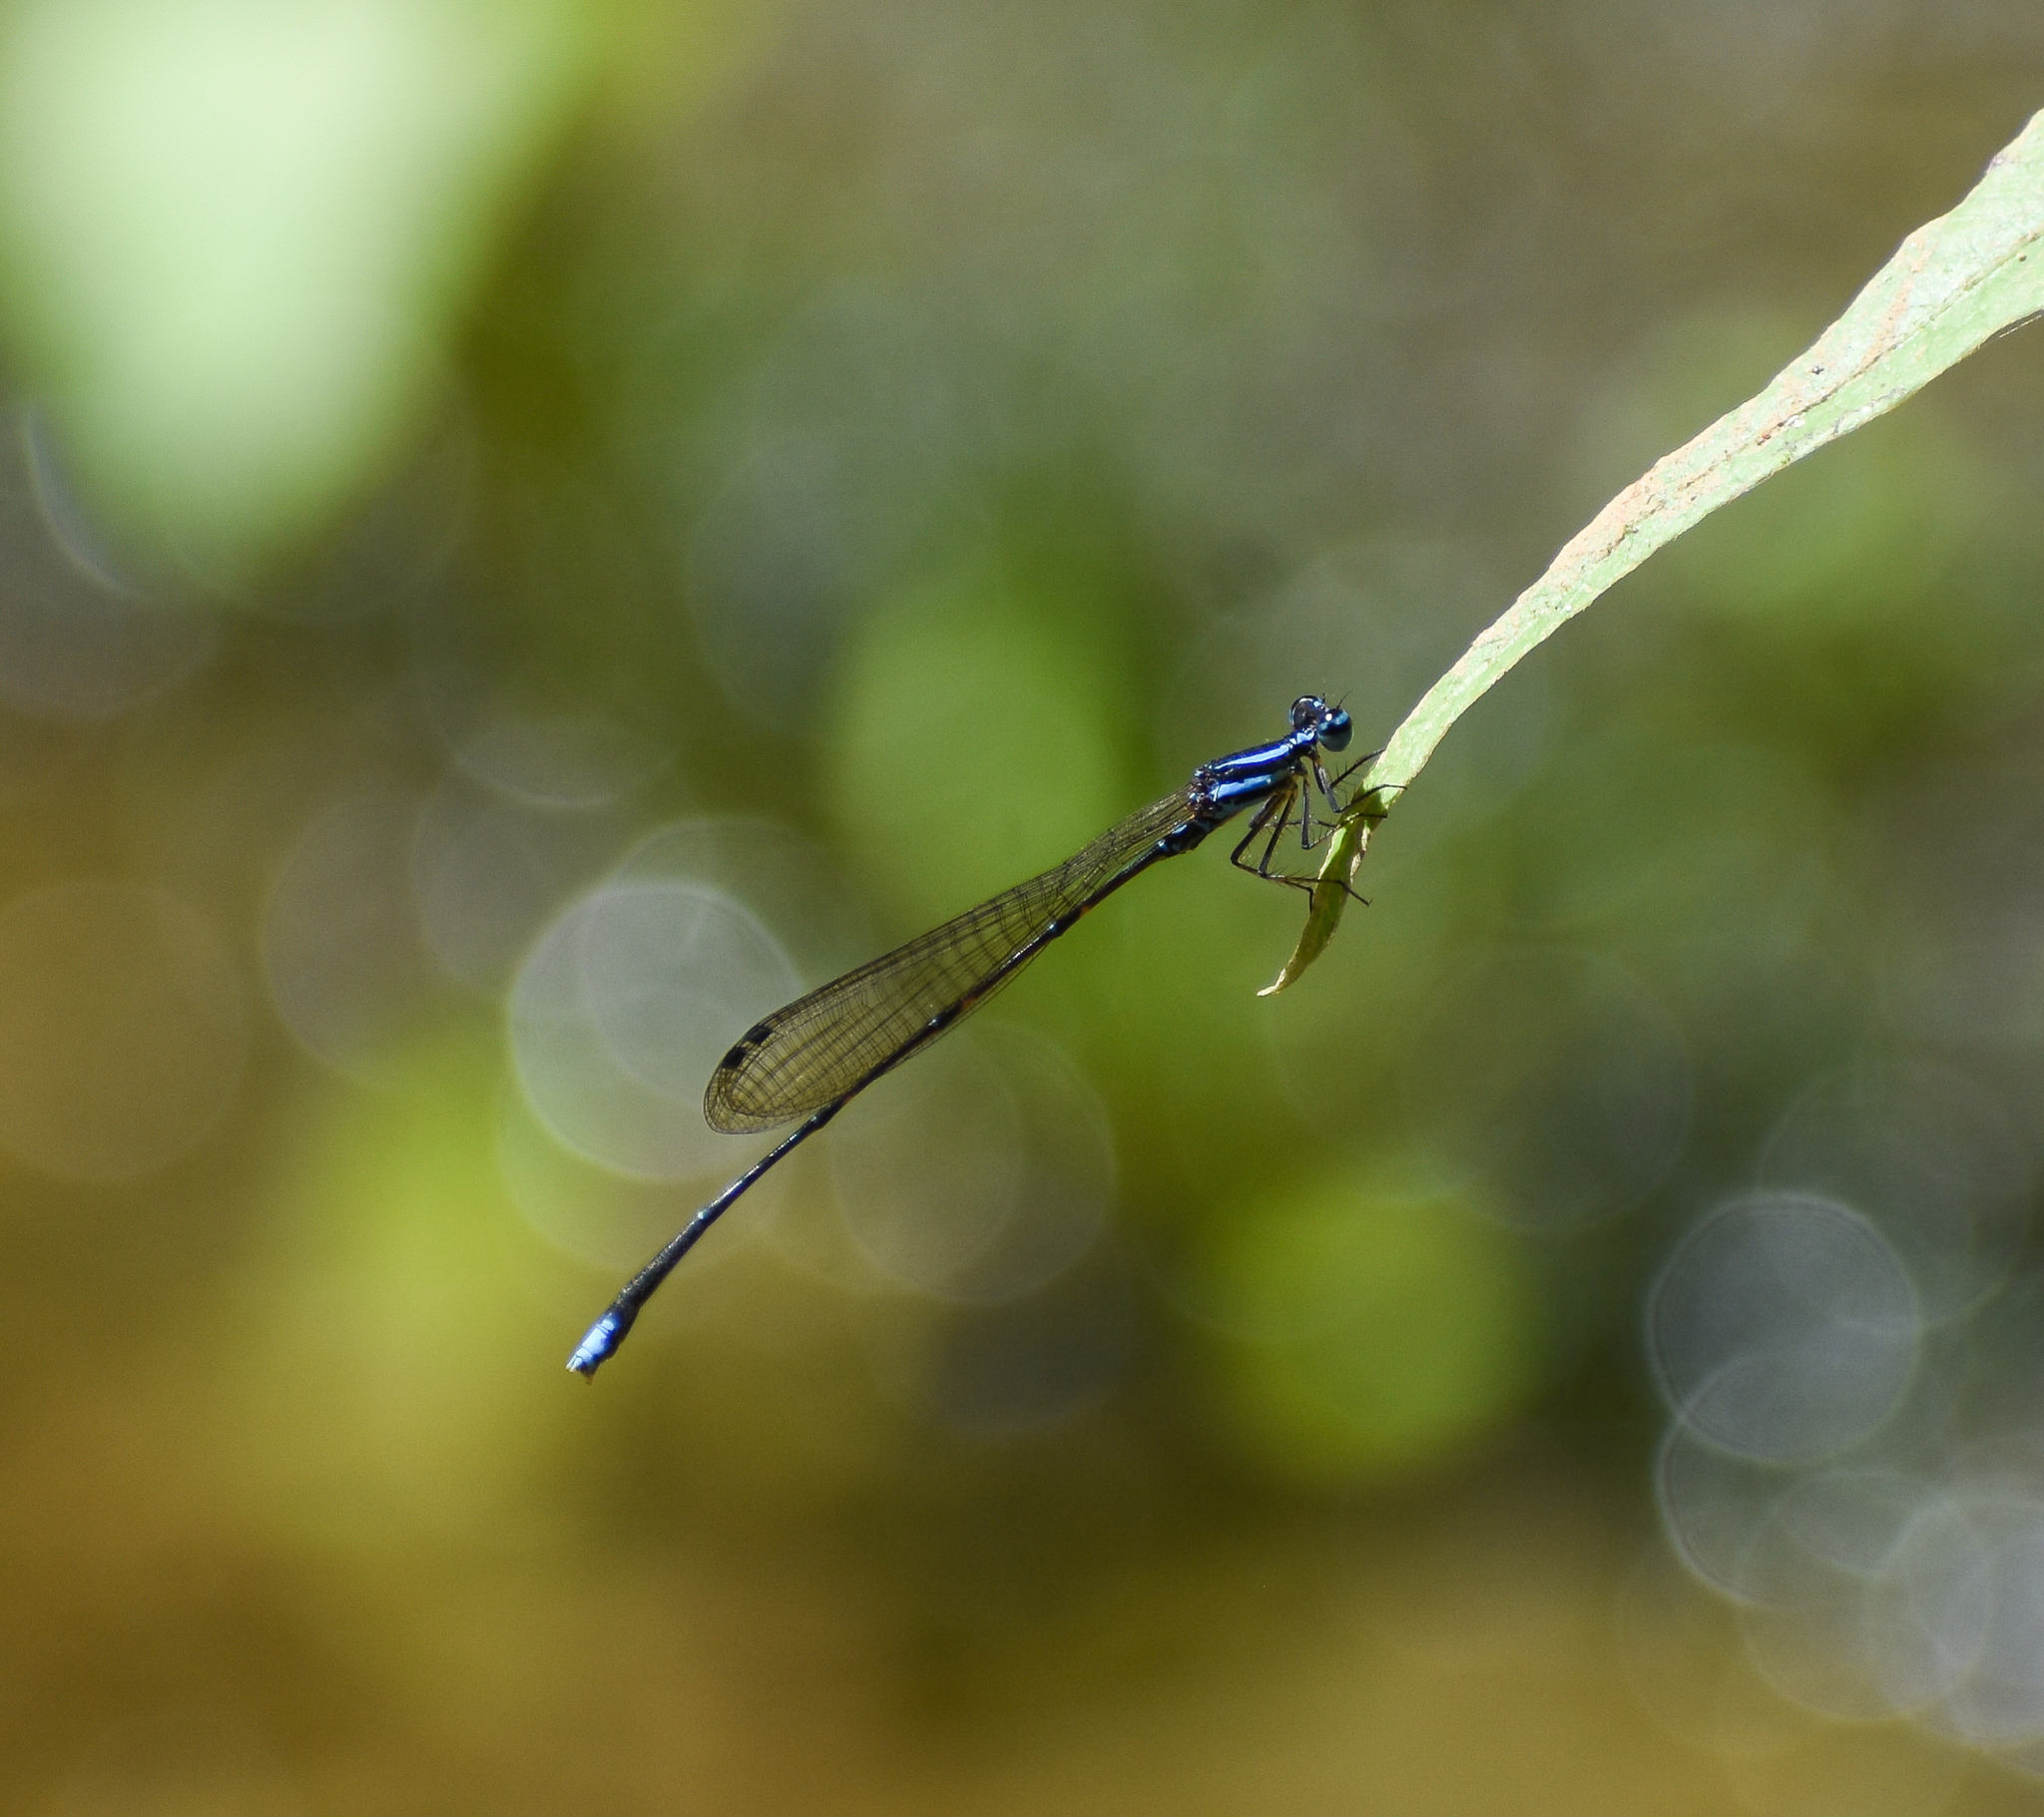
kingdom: Animalia
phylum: Arthropoda
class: Insecta
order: Odonata
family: Platycnemididae
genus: Elattoneura
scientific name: Elattoneura campioni
